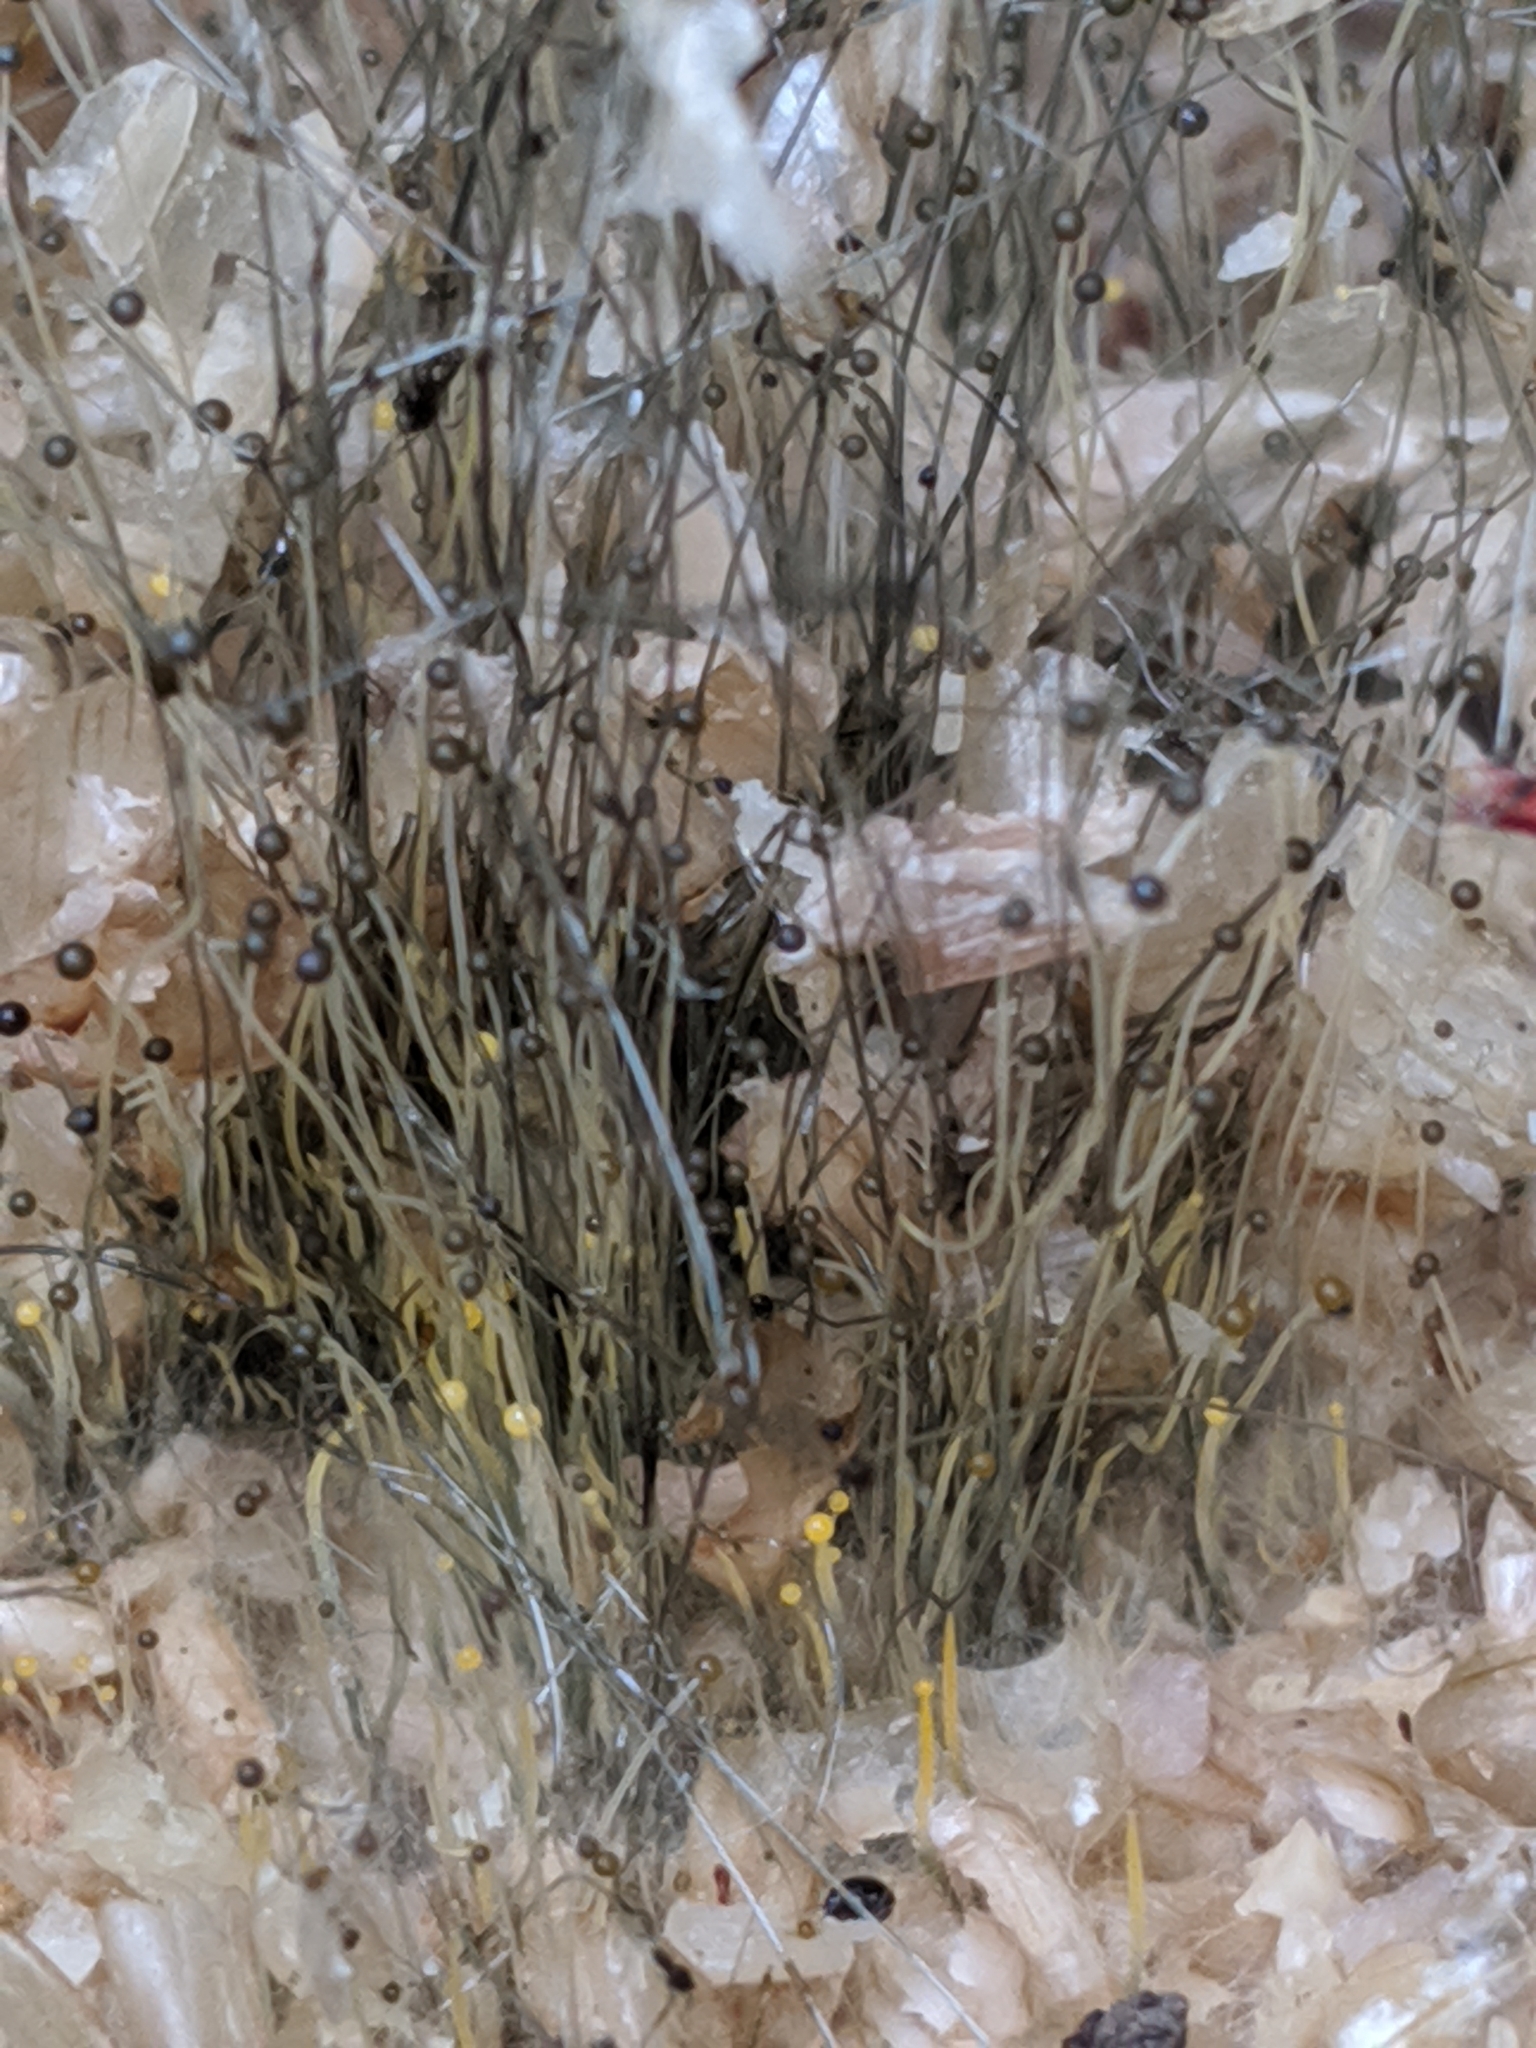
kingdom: Fungi
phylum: Mucoromycota
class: Mucoromycetes
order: Mucorales
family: Phycomycetaceae
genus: Phycomyces
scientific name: Phycomyces nitens
